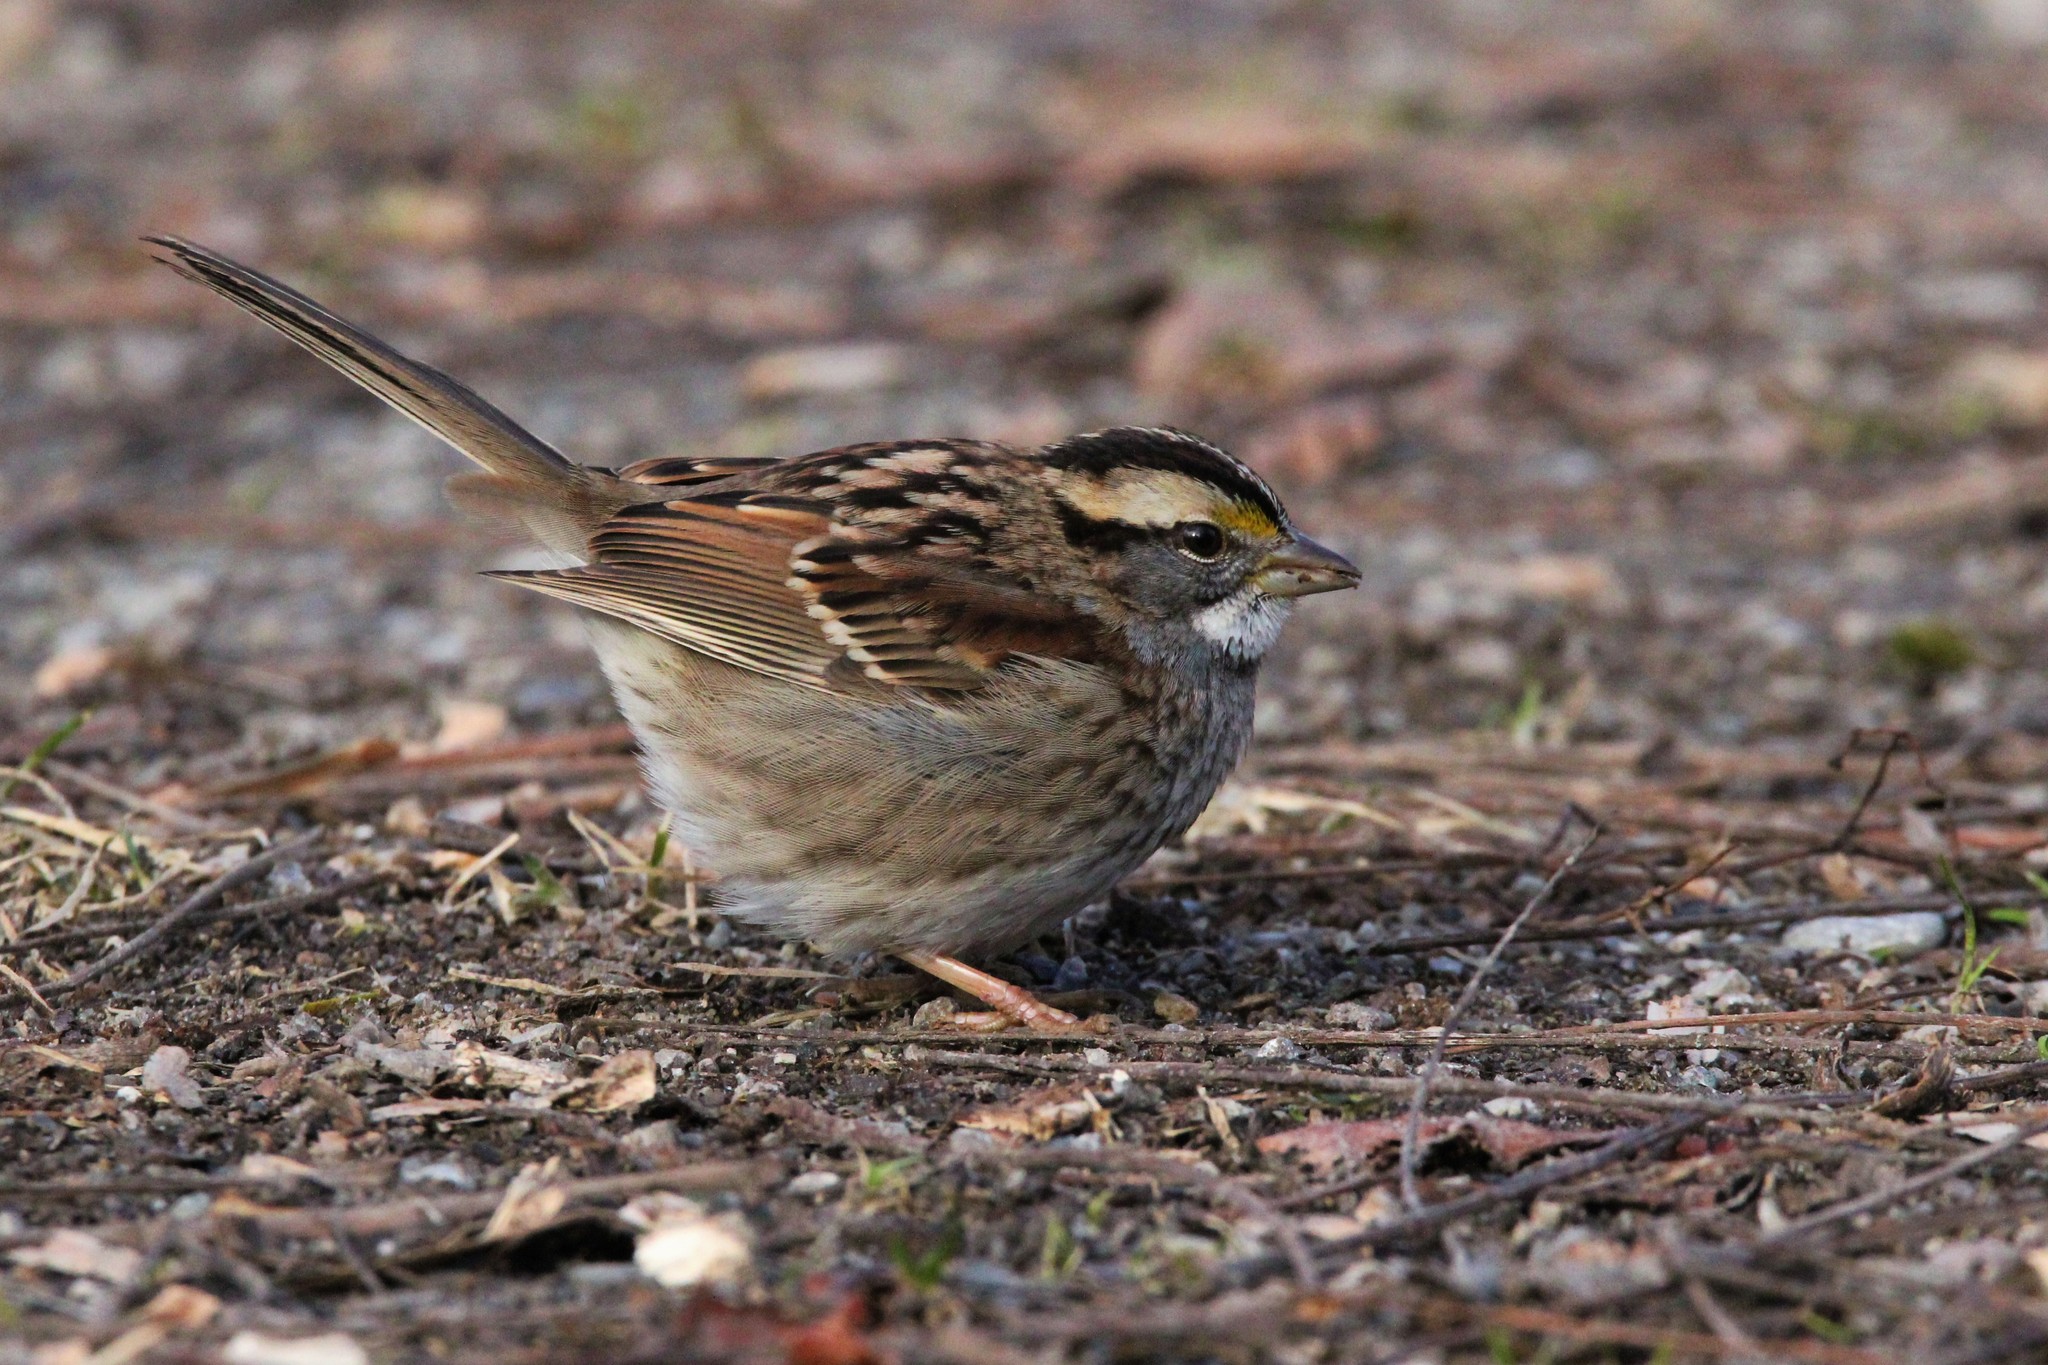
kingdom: Animalia
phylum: Chordata
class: Aves
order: Passeriformes
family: Passerellidae
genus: Zonotrichia
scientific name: Zonotrichia albicollis
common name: White-throated sparrow
